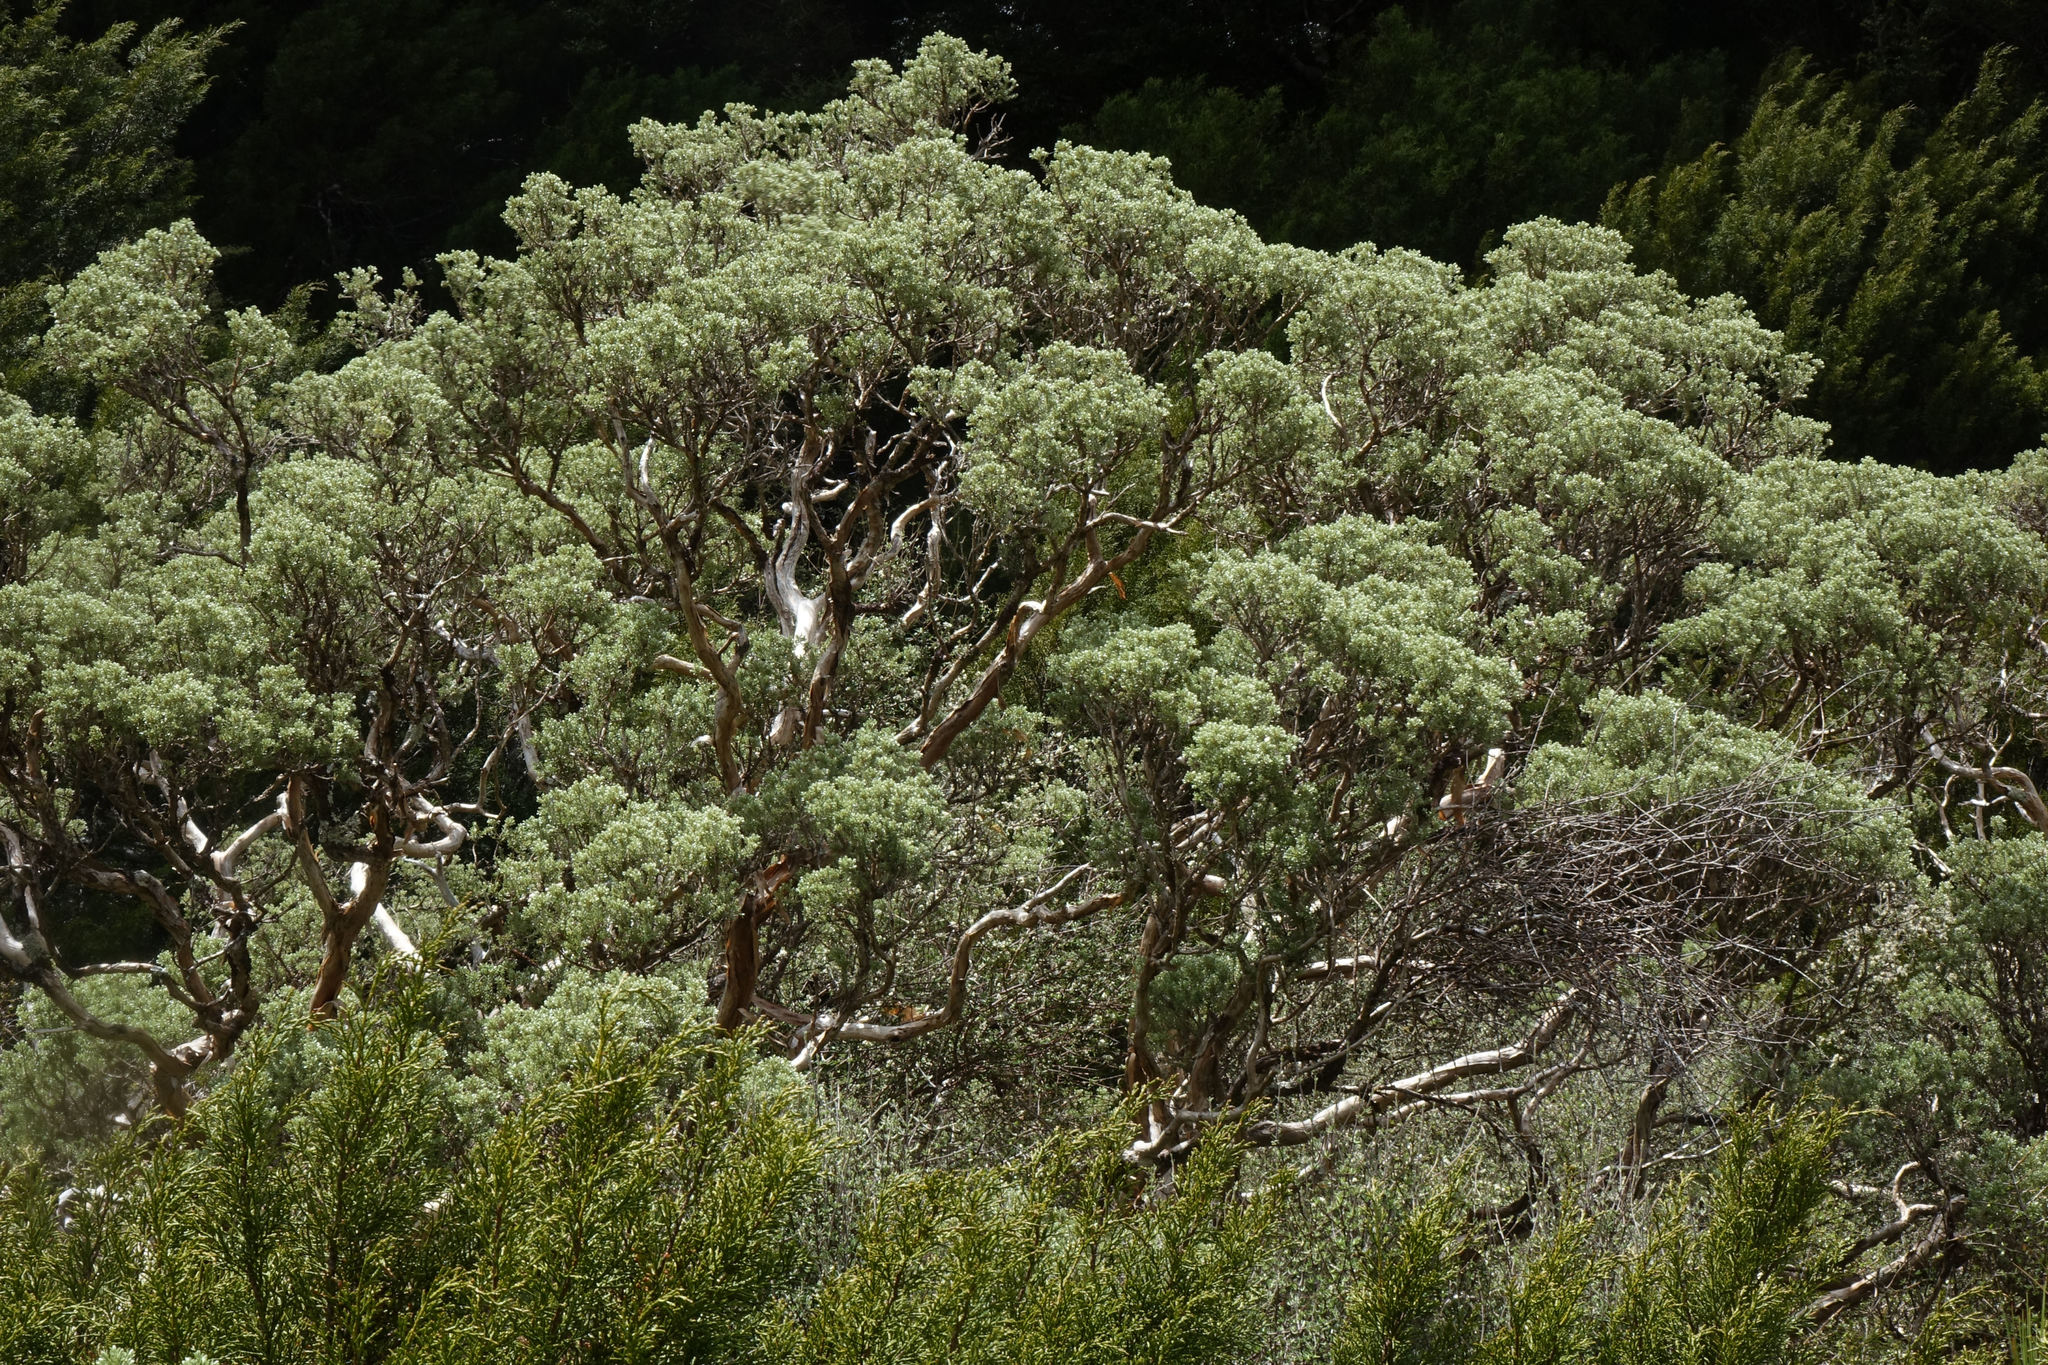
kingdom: Plantae
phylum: Tracheophyta
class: Magnoliopsida
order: Asterales
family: Asteraceae
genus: Brachyglottis
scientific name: Brachyglottis cassinioides
